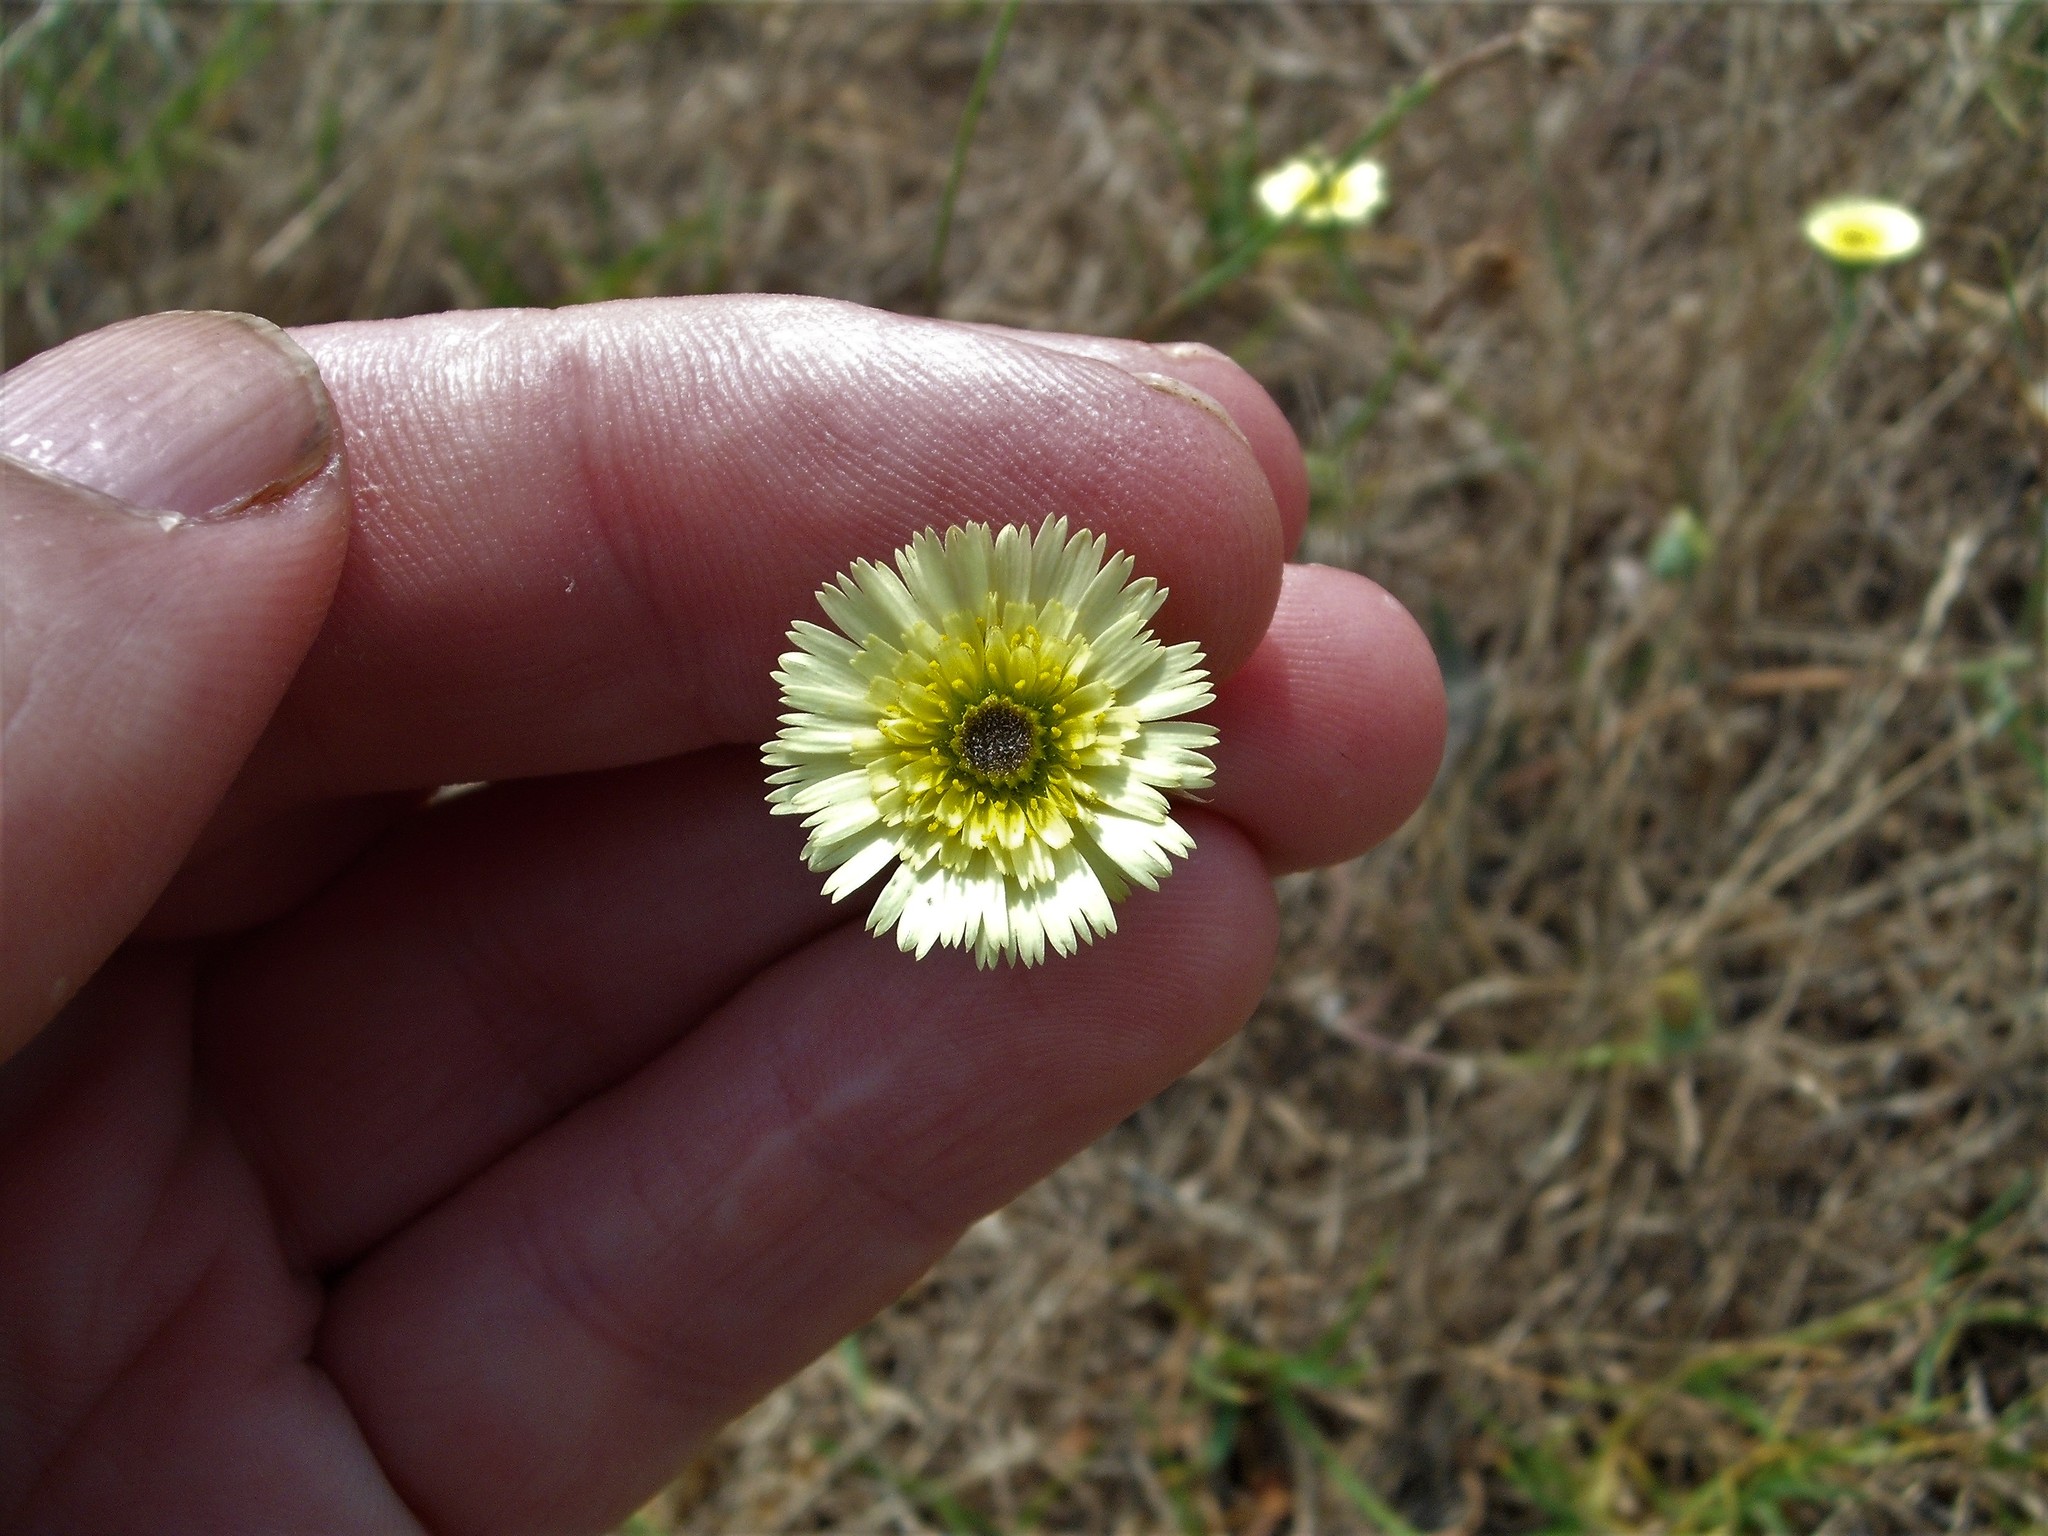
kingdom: Plantae
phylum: Tracheophyta
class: Magnoliopsida
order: Asterales
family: Asteraceae
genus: Tolpis
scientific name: Tolpis barbata
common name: Yellow hawkweed
